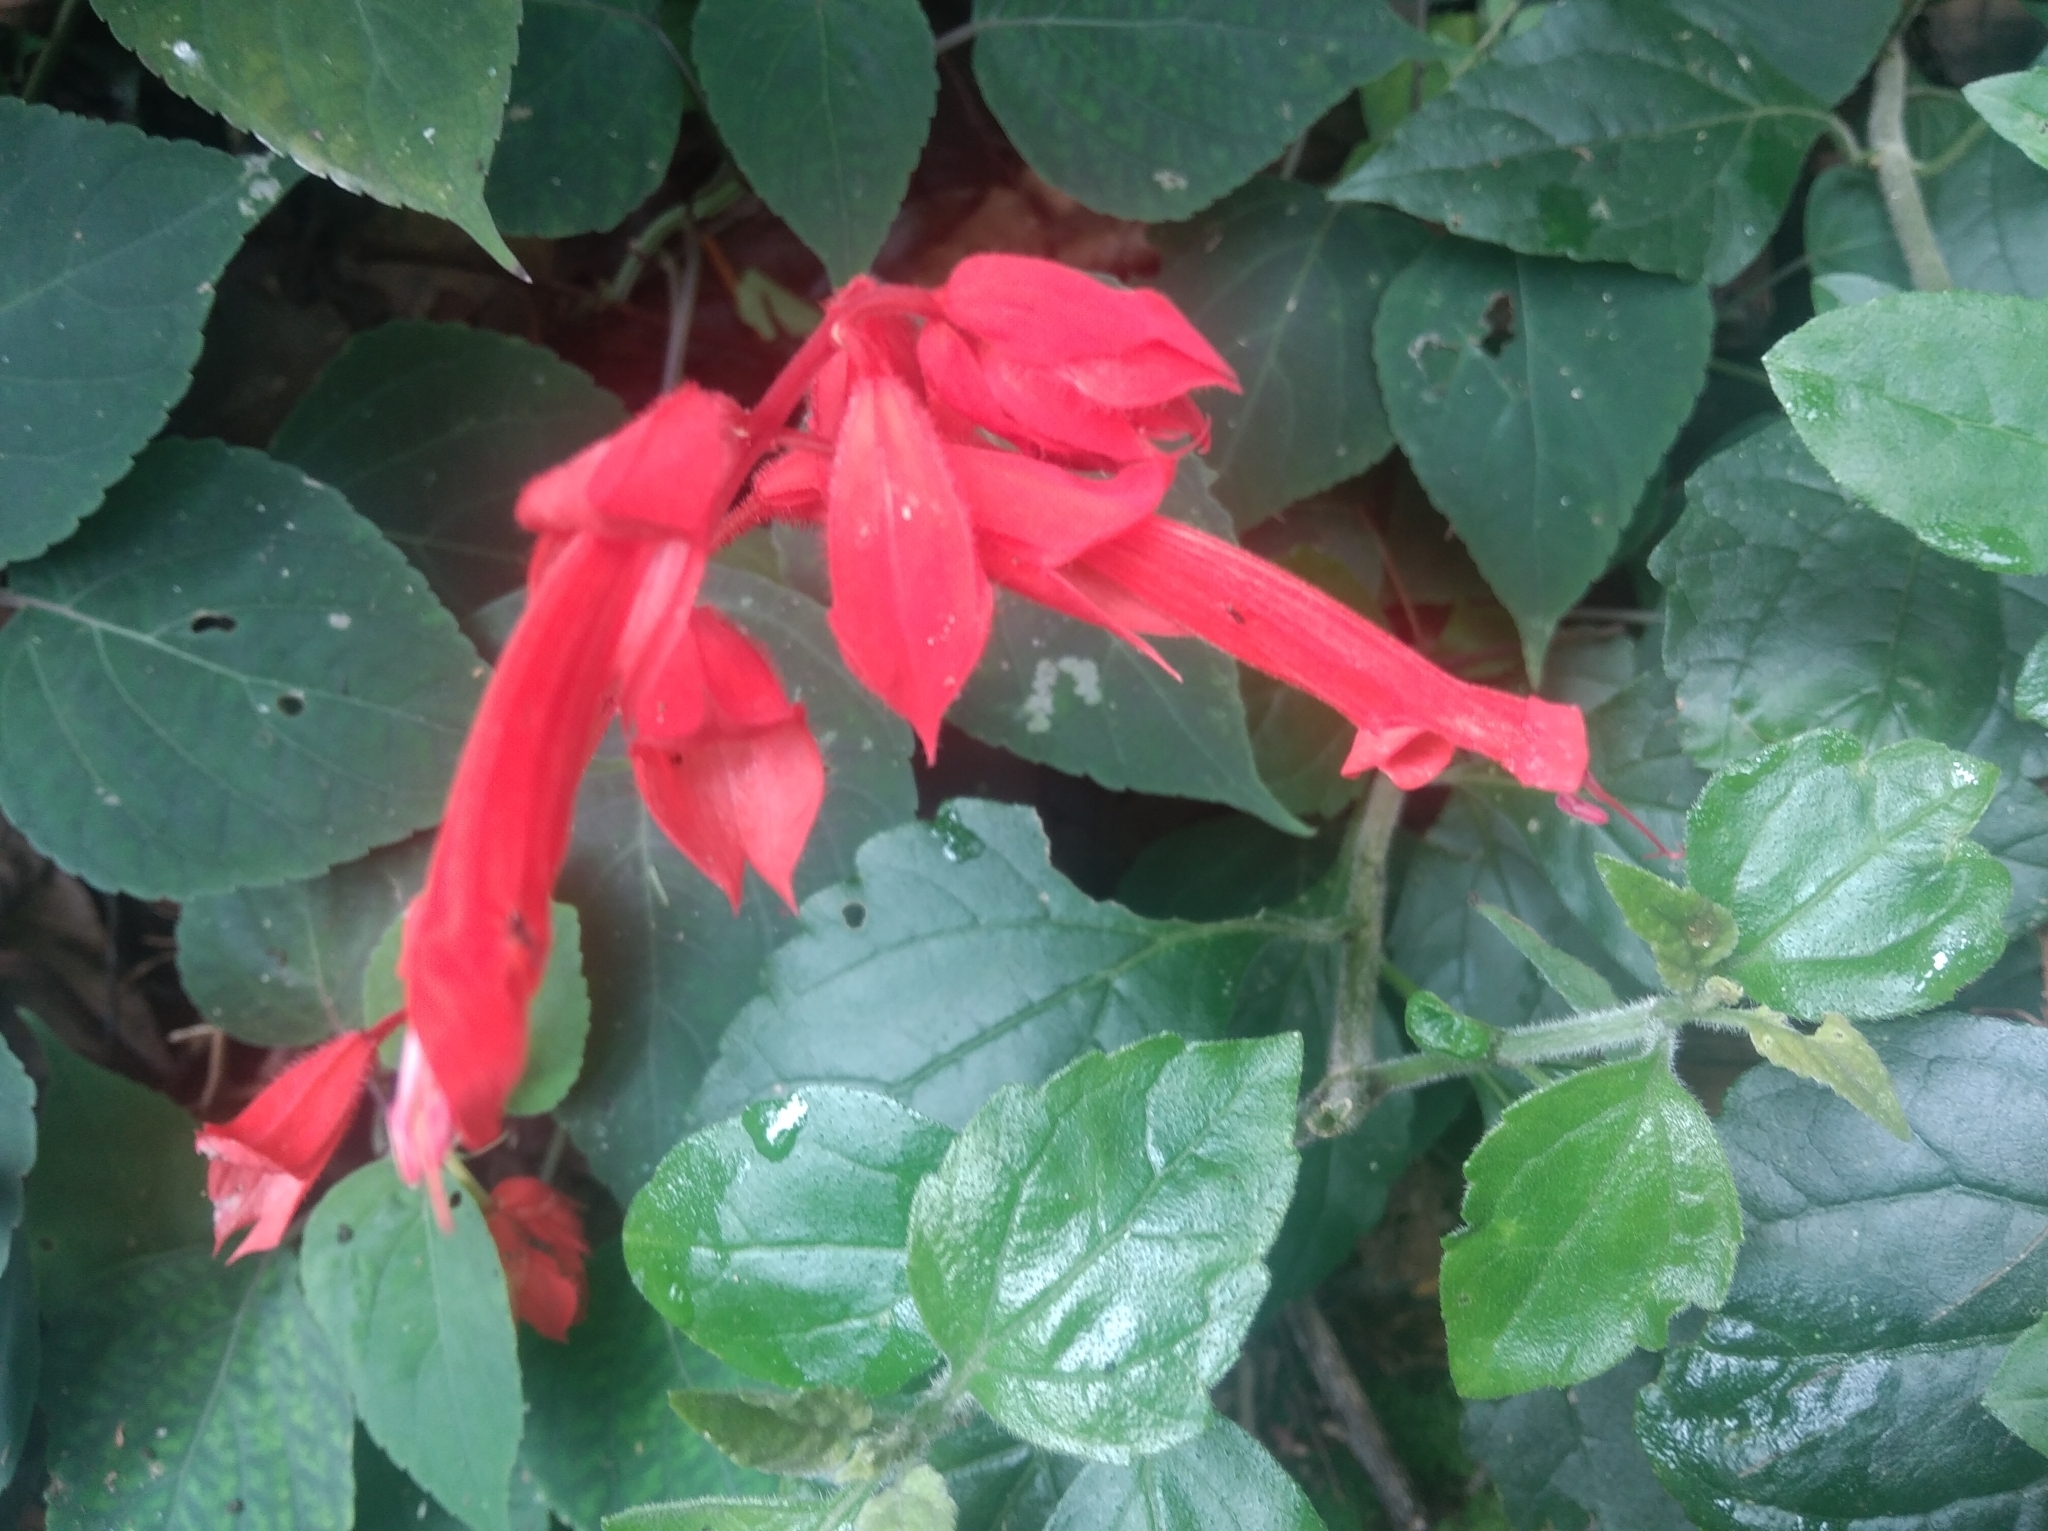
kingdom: Plantae
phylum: Tracheophyta
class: Magnoliopsida
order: Lamiales
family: Lamiaceae
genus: Salvia
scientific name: Salvia splendens
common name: Scarlet sage
